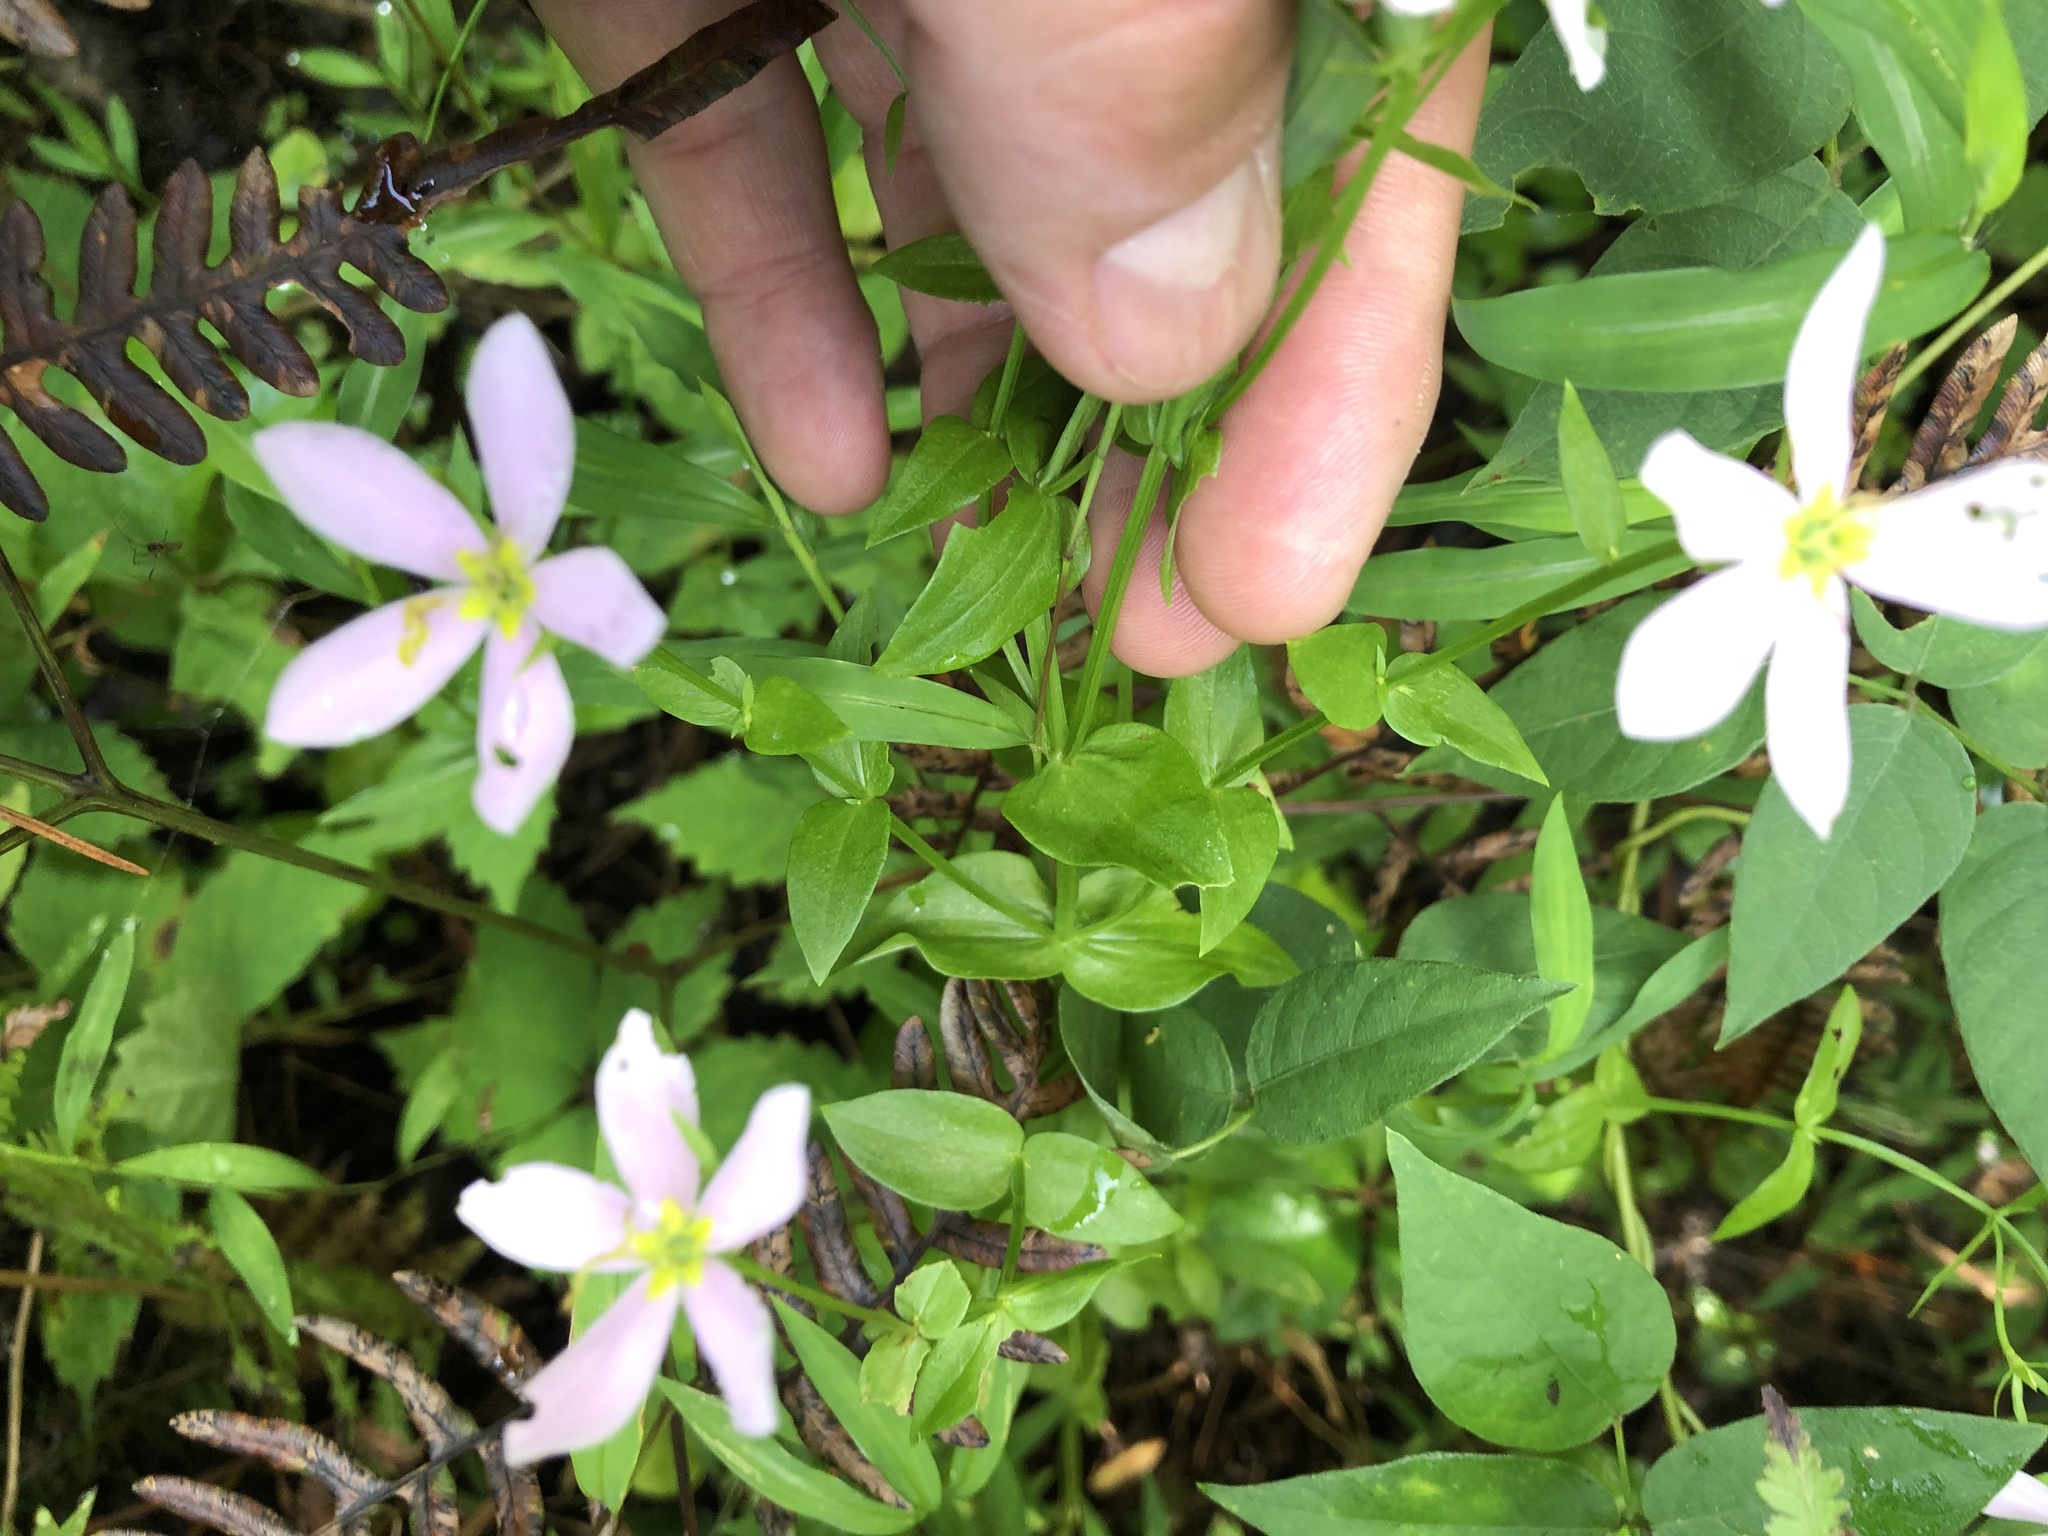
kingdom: Plantae
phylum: Tracheophyta
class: Magnoliopsida
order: Gentianales
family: Gentianaceae
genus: Sabatia
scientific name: Sabatia angularis
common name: Rose-pink
